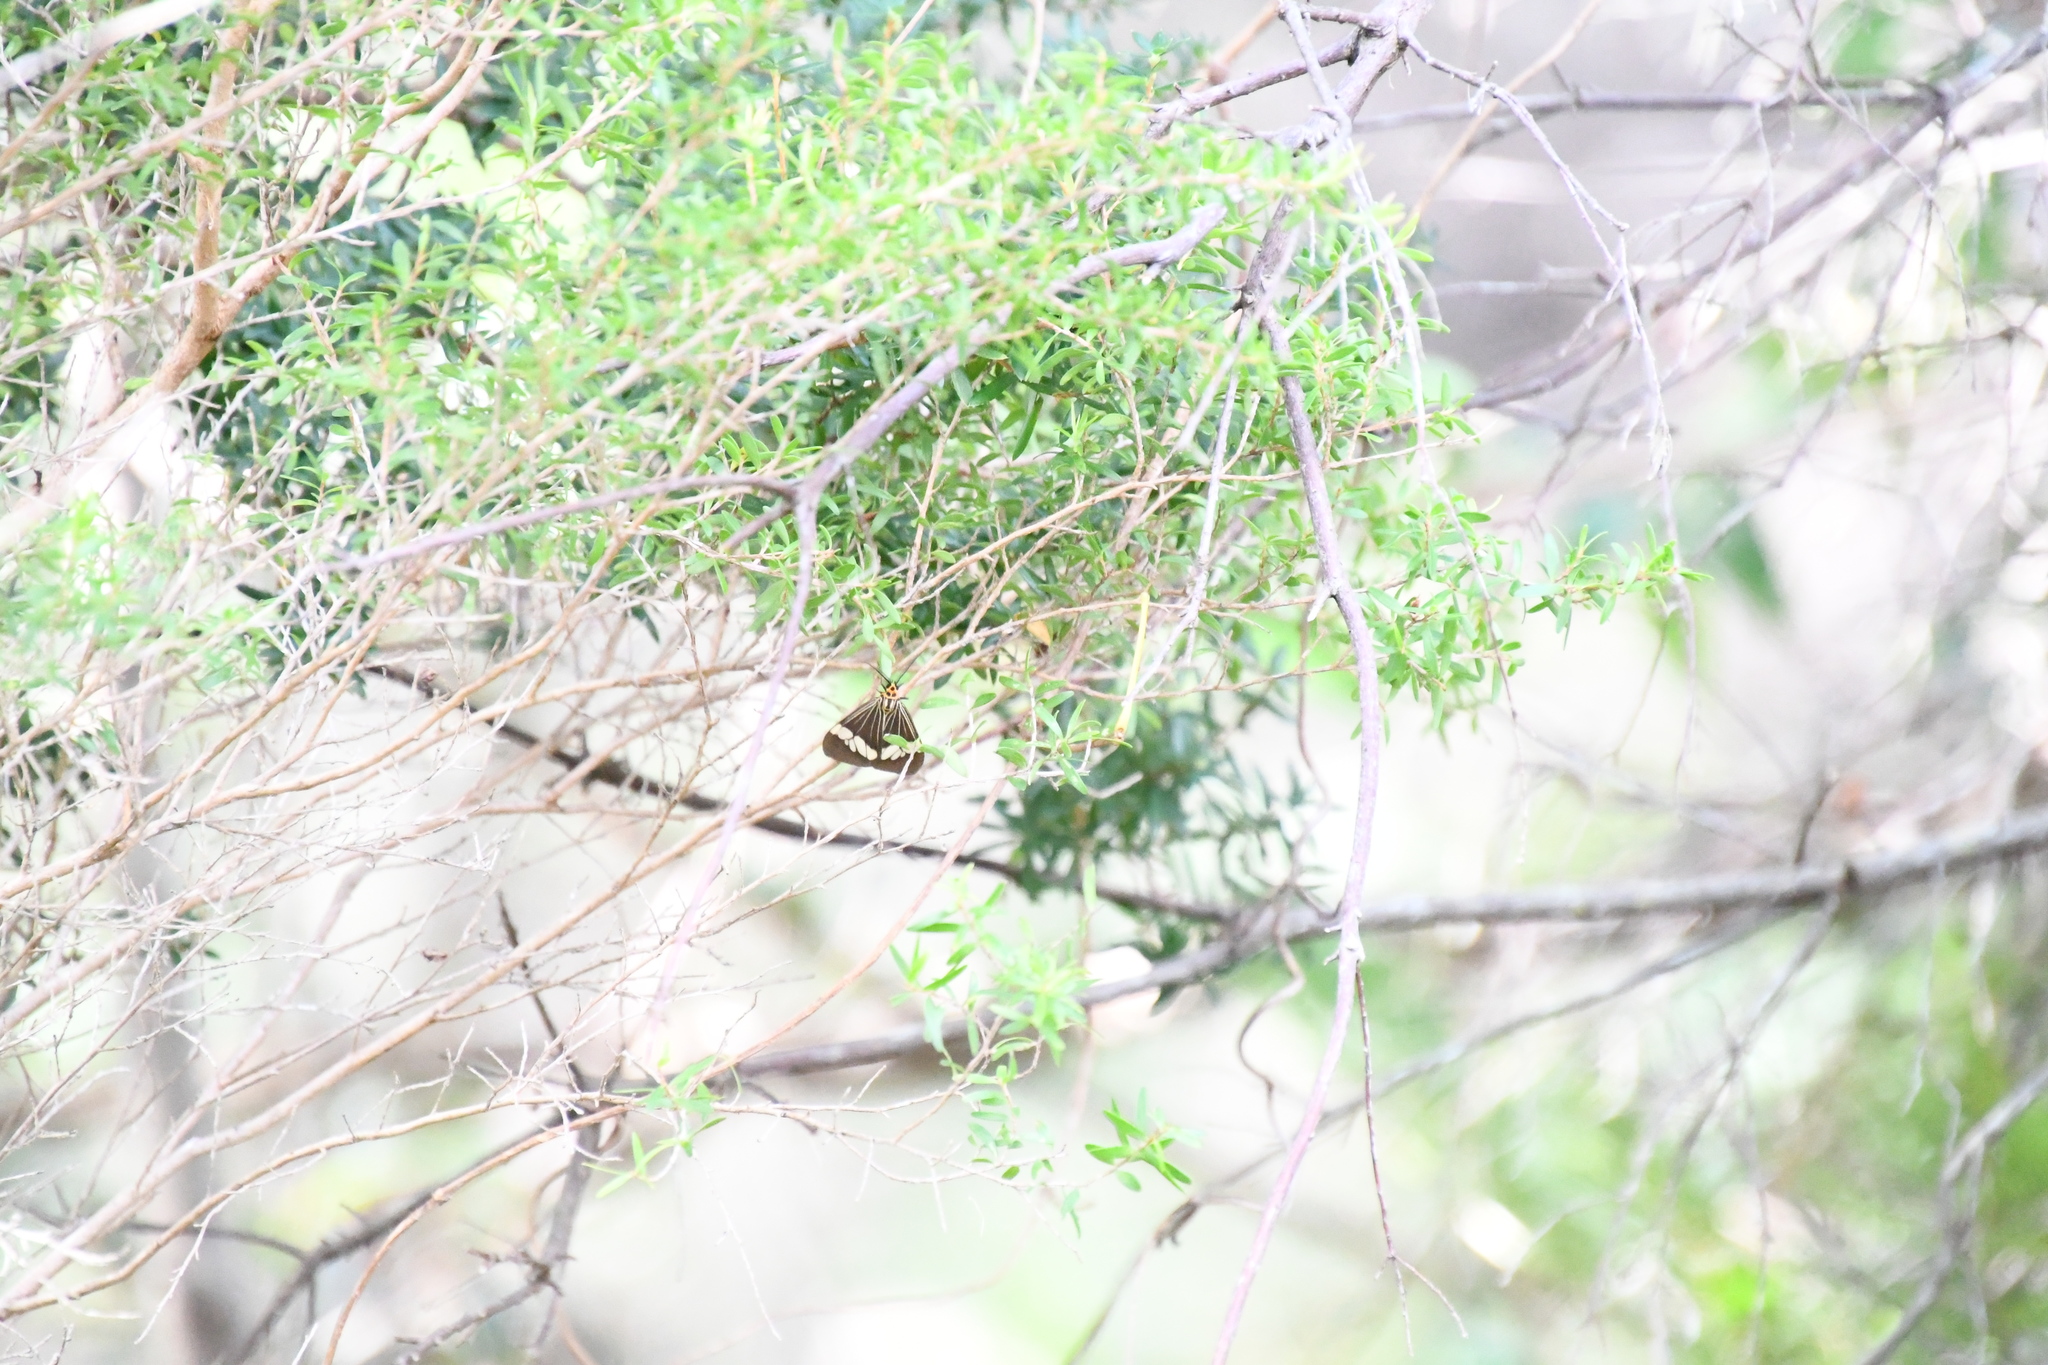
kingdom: Animalia
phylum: Arthropoda
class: Insecta
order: Lepidoptera
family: Erebidae
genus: Nyctemera
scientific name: Nyctemera baulus
